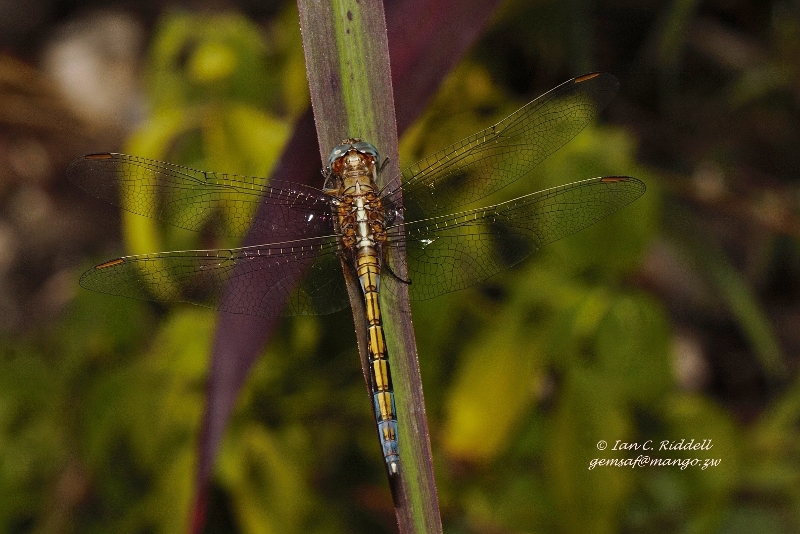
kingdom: Animalia
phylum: Arthropoda
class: Insecta
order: Odonata
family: Libellulidae
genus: Orthetrum
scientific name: Orthetrum chrysostigma
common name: Epaulet skimmer
